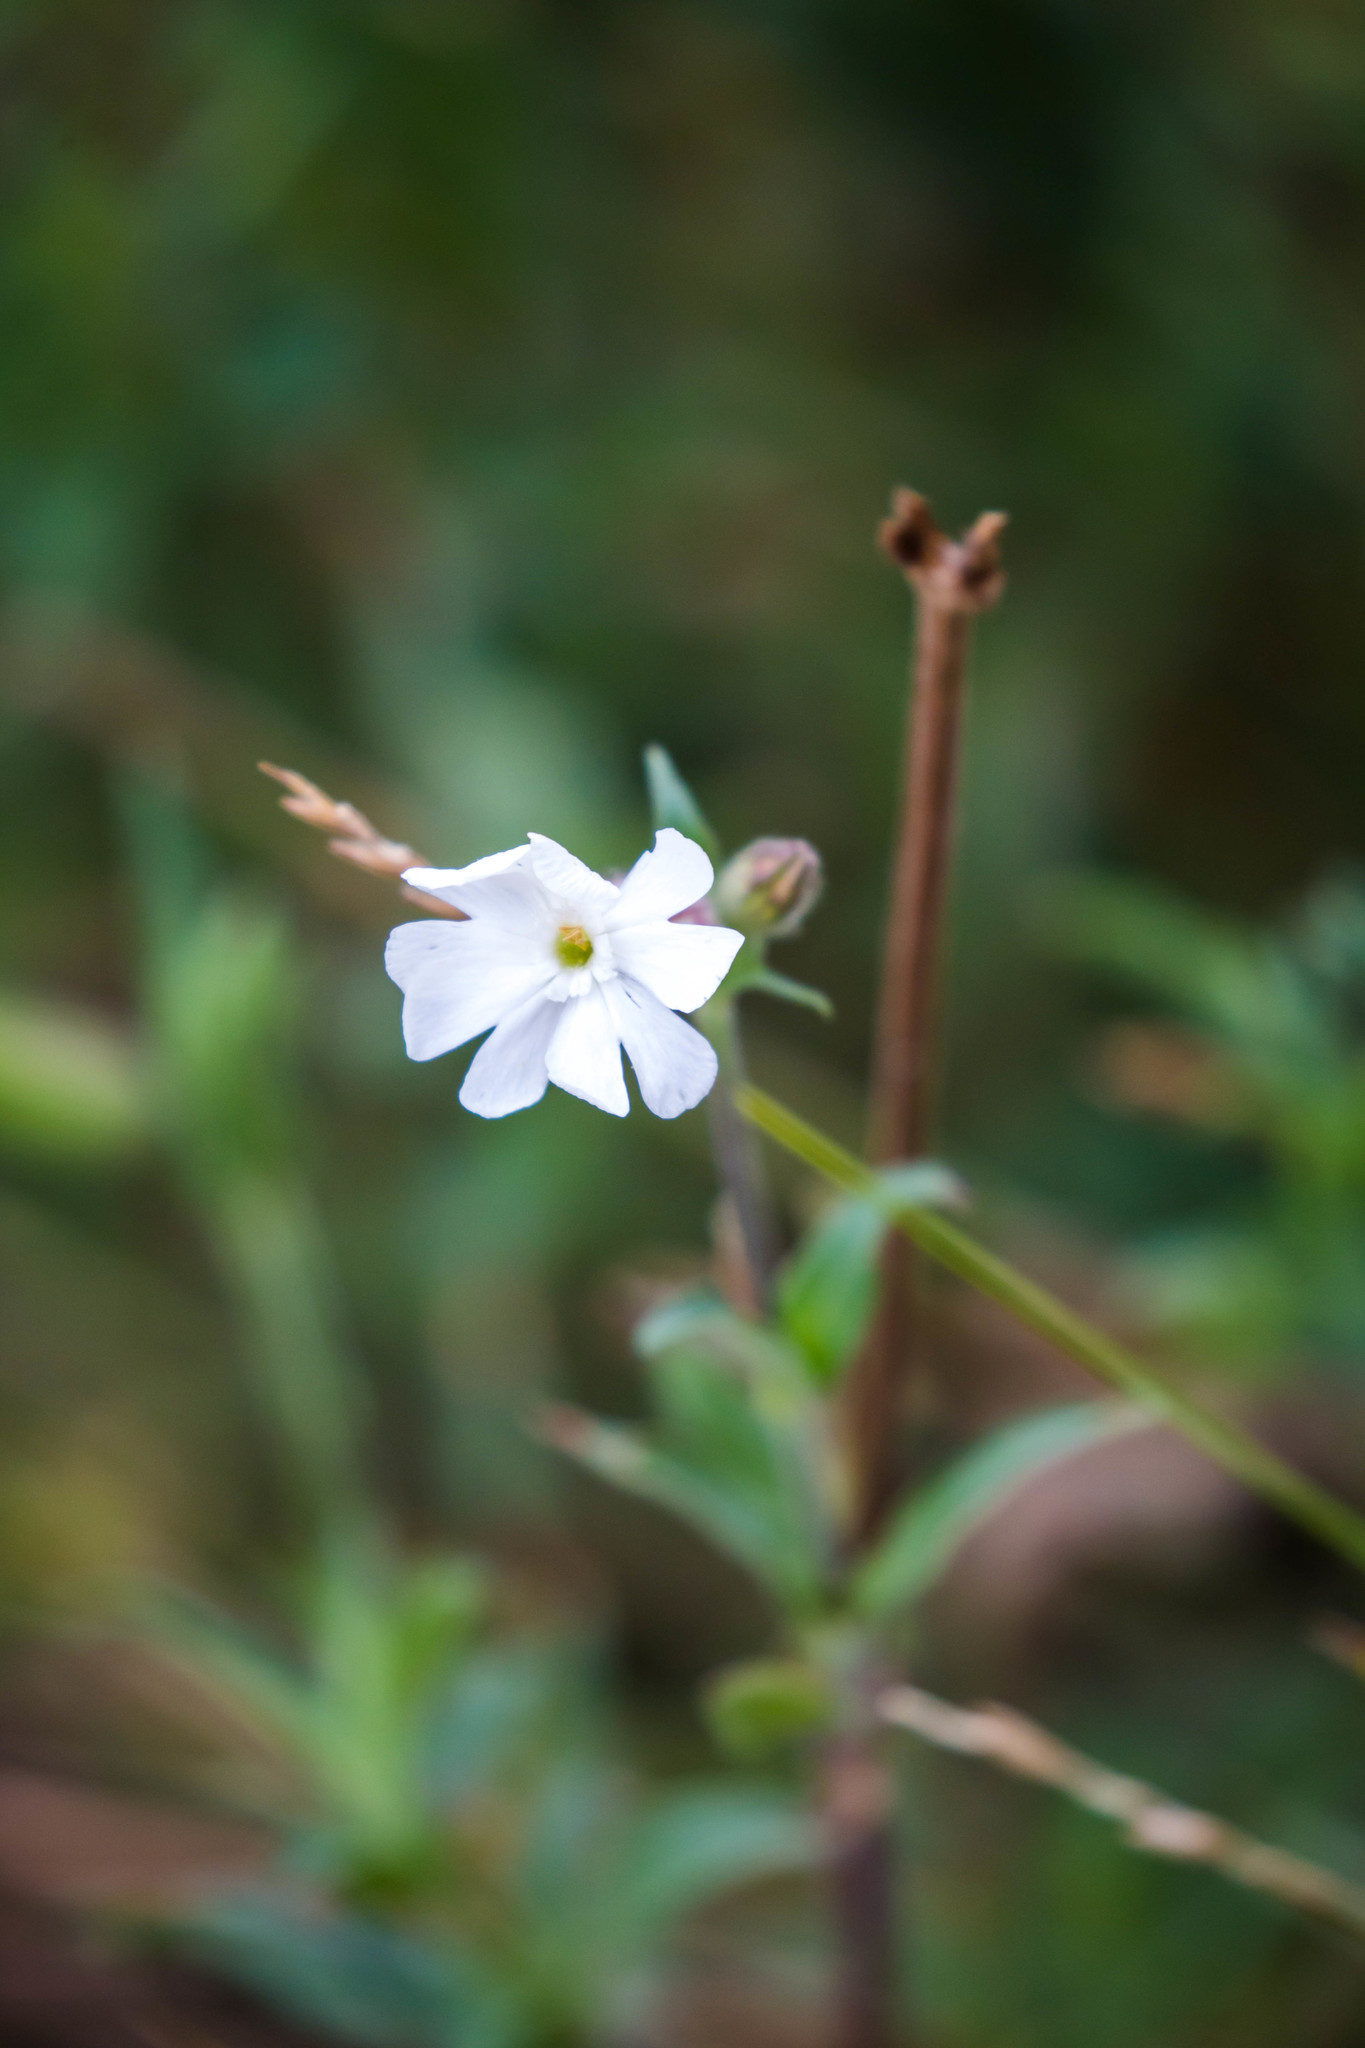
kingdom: Plantae
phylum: Tracheophyta
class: Magnoliopsida
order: Caryophyllales
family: Caryophyllaceae
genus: Silene
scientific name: Silene latifolia
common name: White campion
